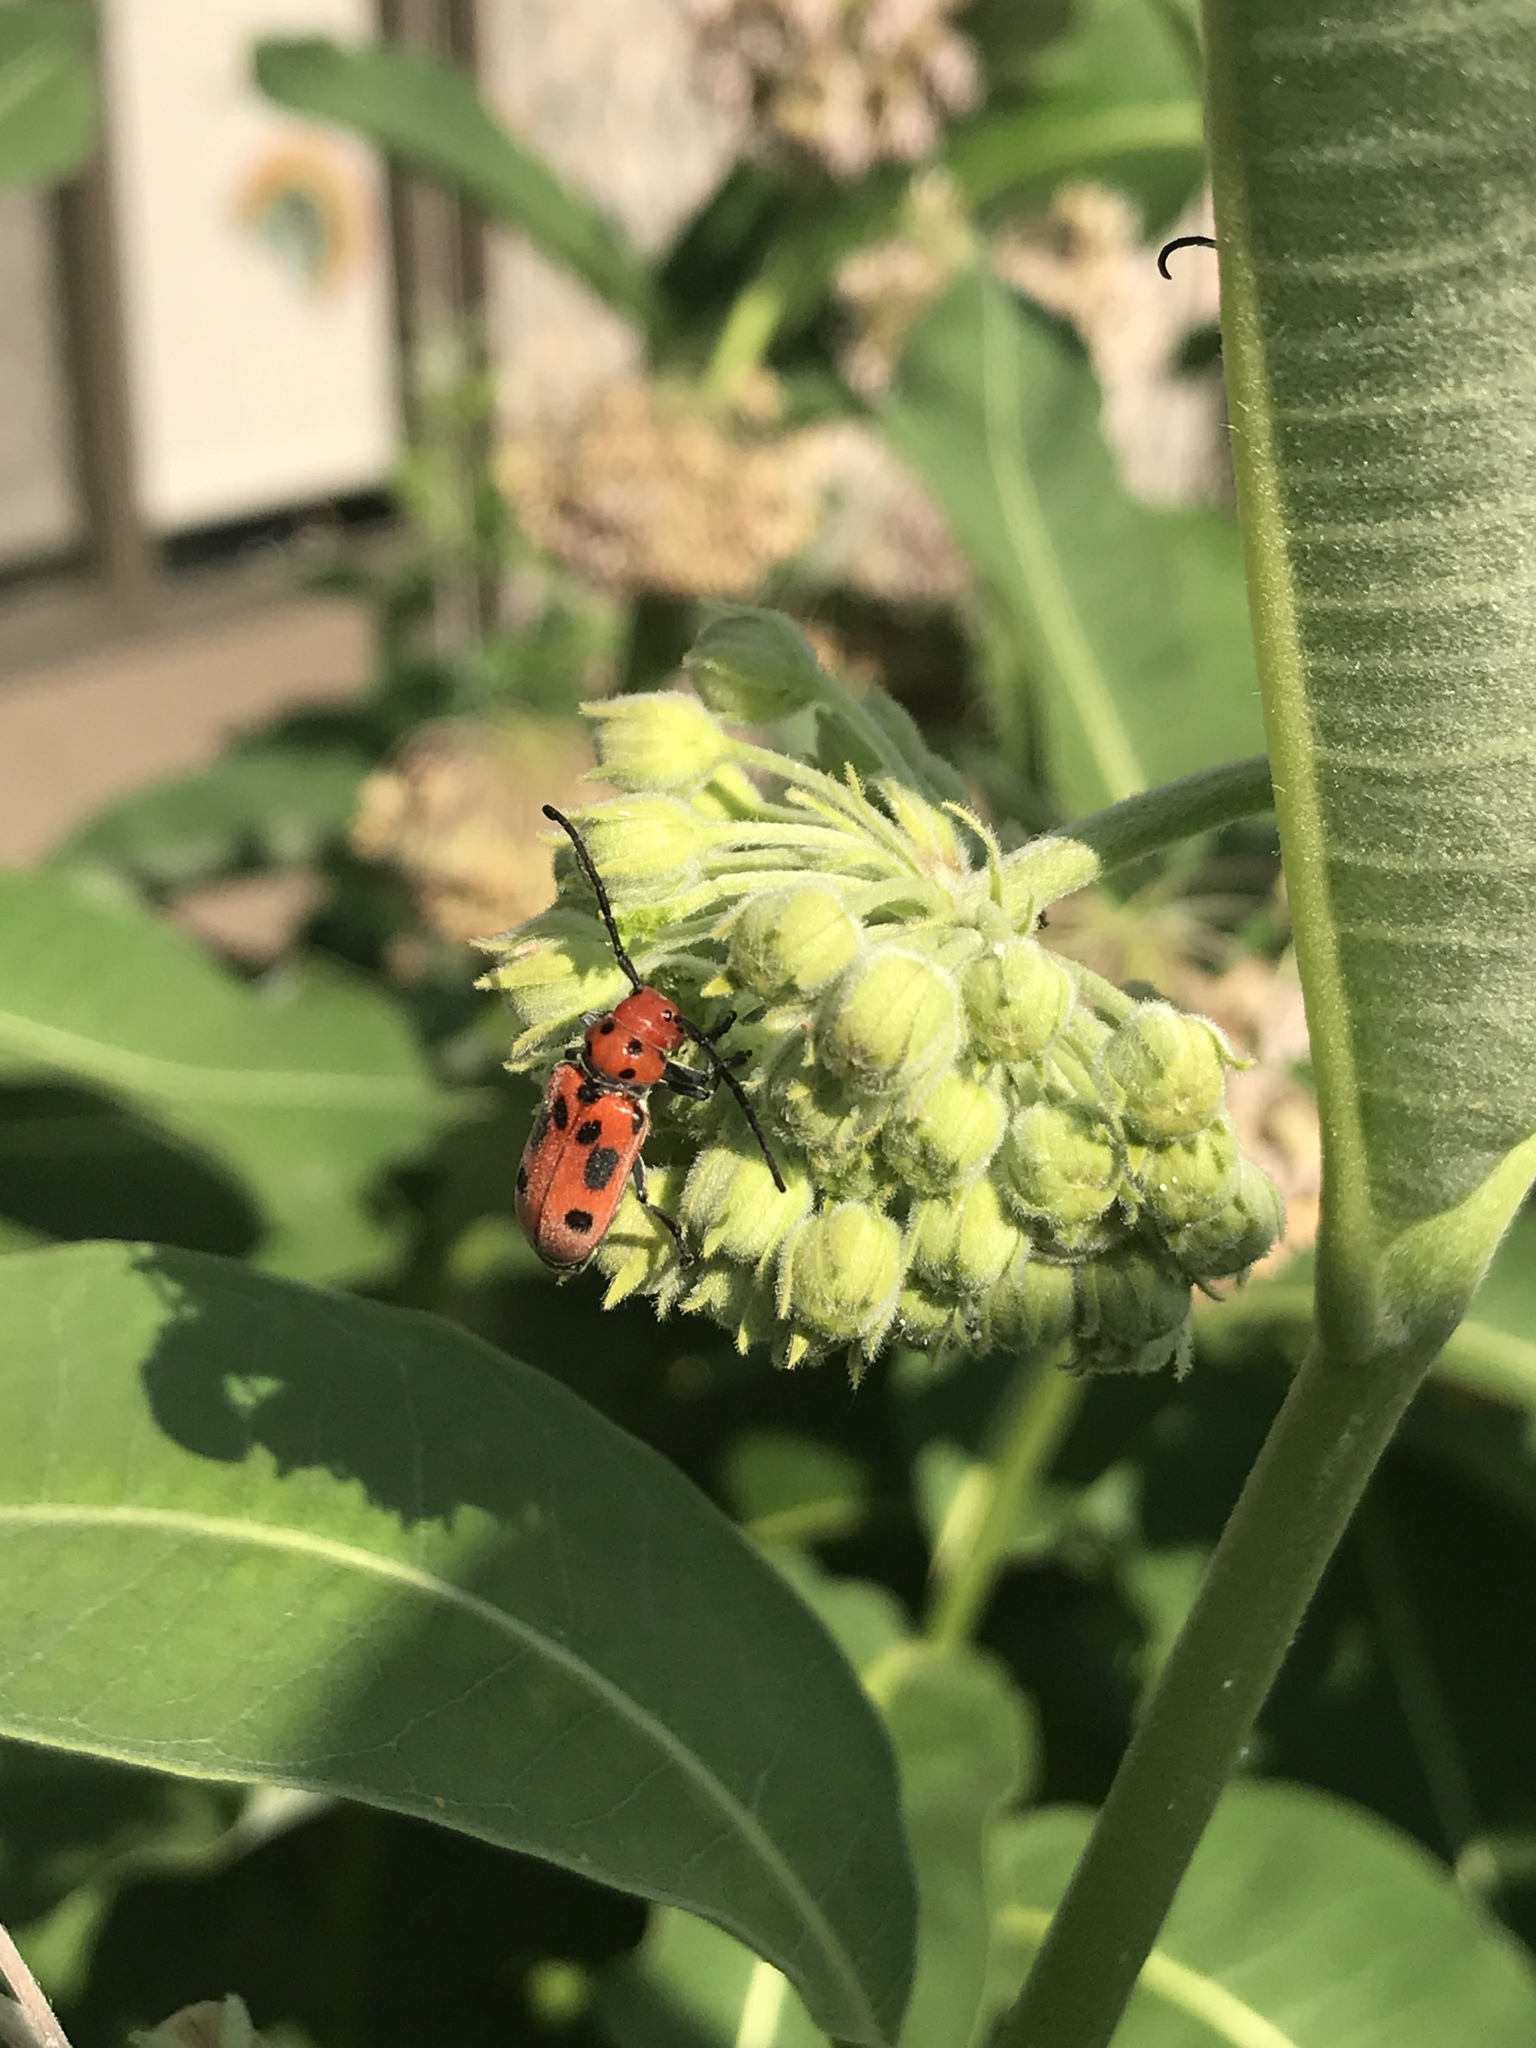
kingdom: Animalia
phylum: Arthropoda
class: Insecta
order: Coleoptera
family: Cerambycidae
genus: Tetraopes
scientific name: Tetraopes tetrophthalmus
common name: Red milkweed beetle
